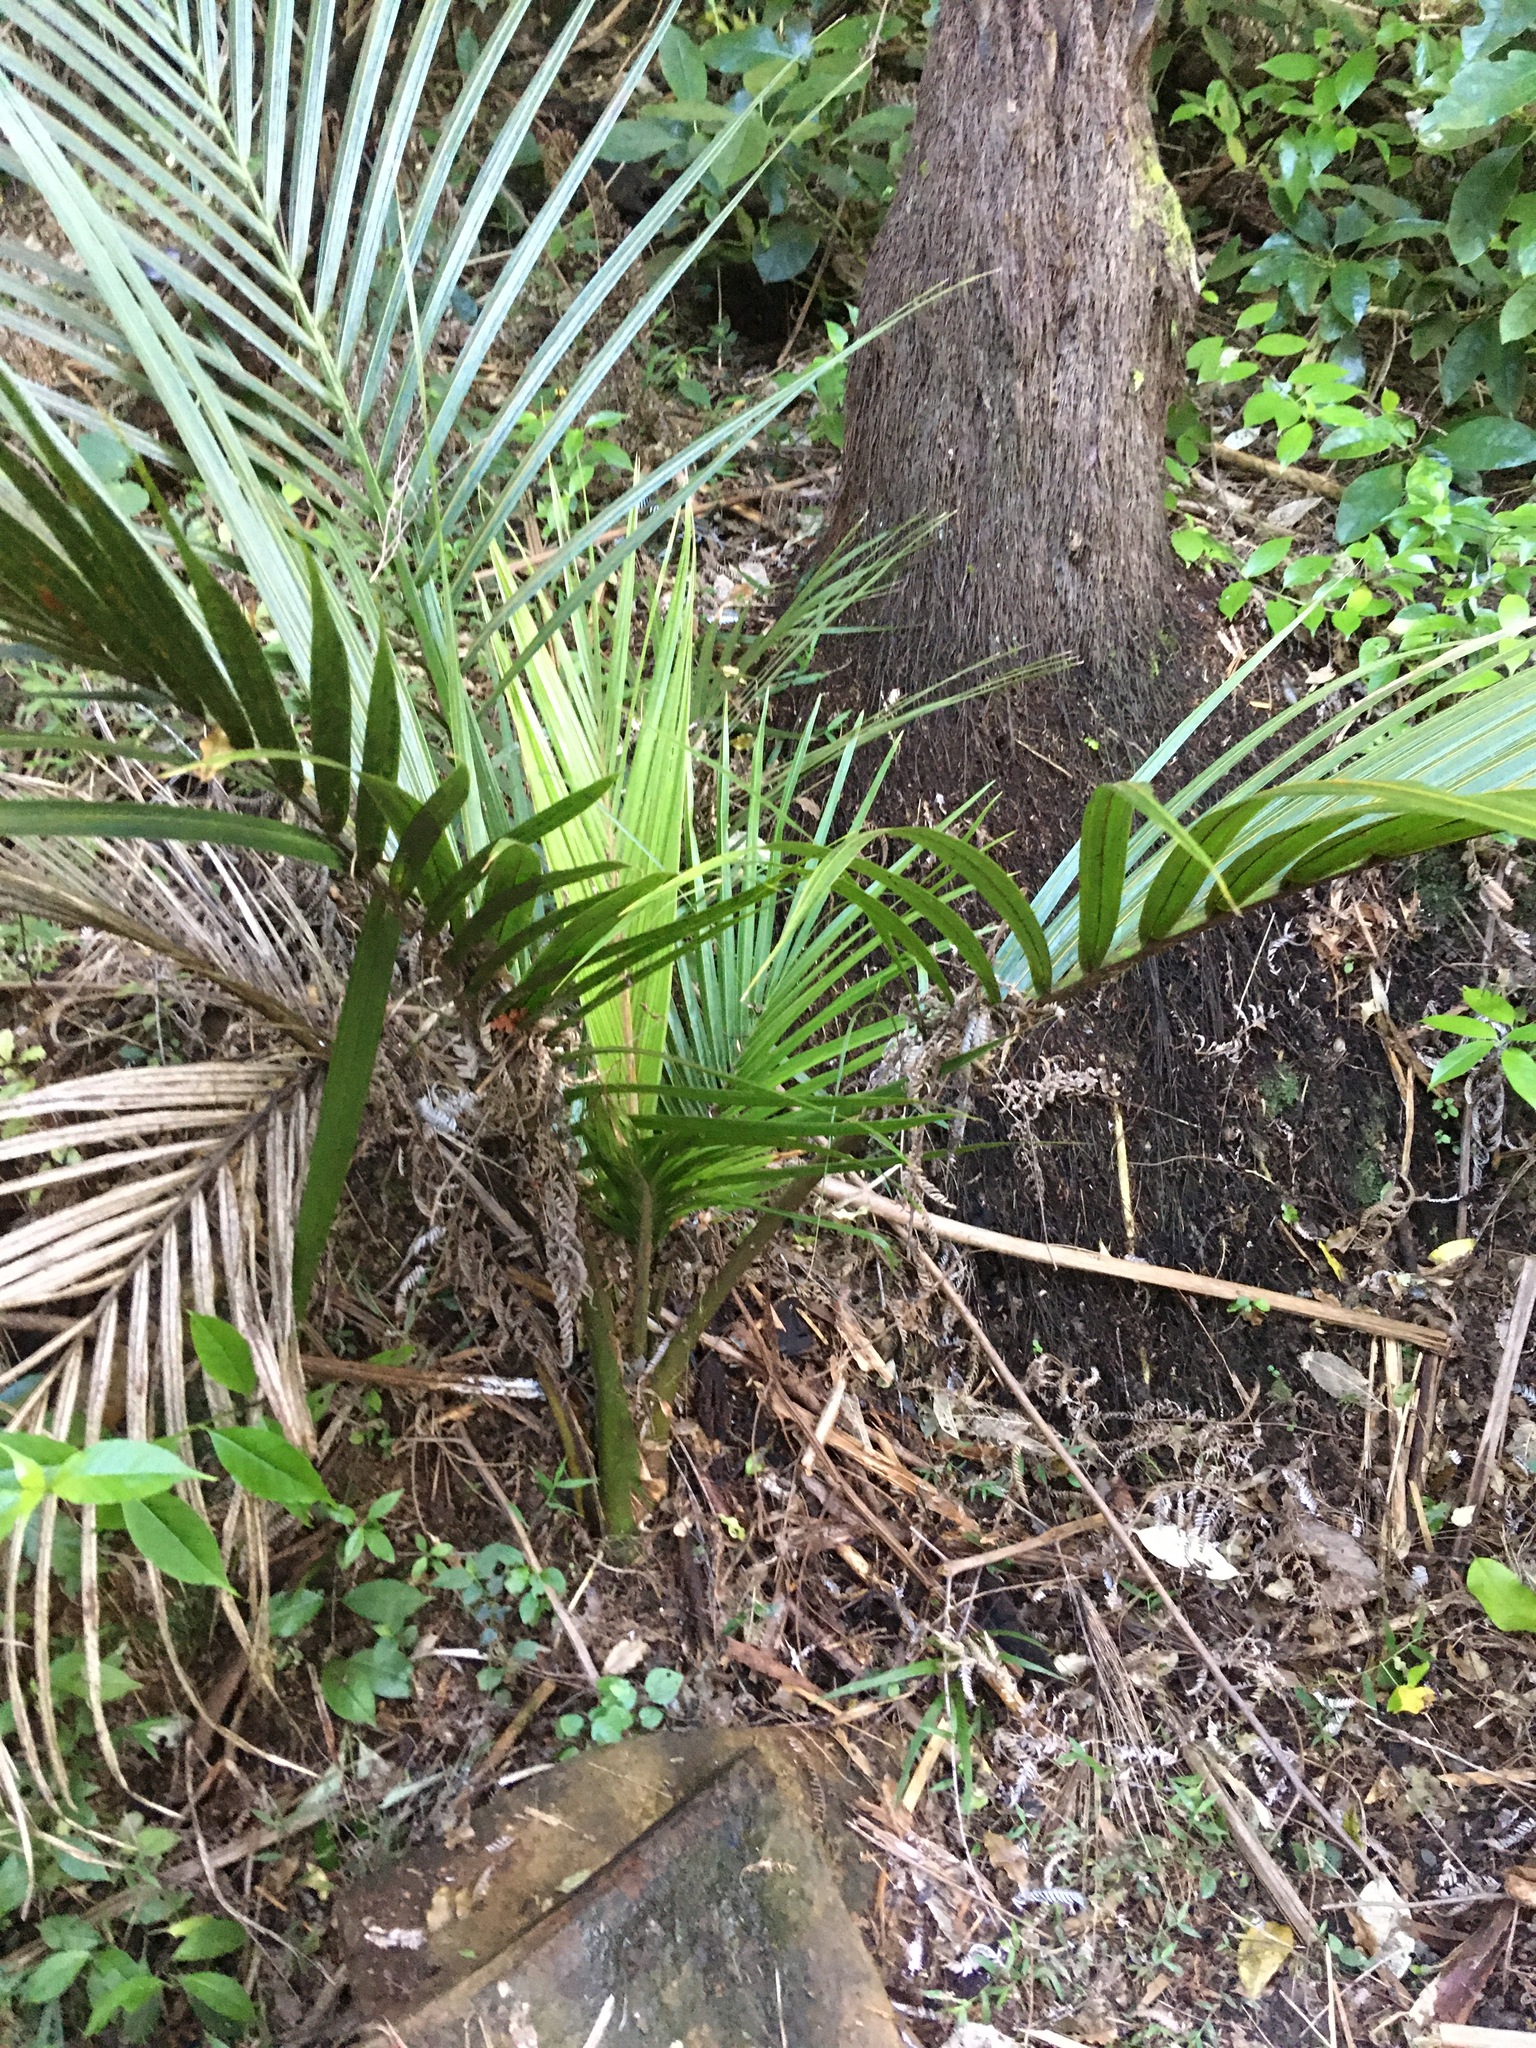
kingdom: Plantae
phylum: Tracheophyta
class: Liliopsida
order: Arecales
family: Arecaceae
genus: Rhopalostylis
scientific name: Rhopalostylis sapida
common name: Feather-duster palm
